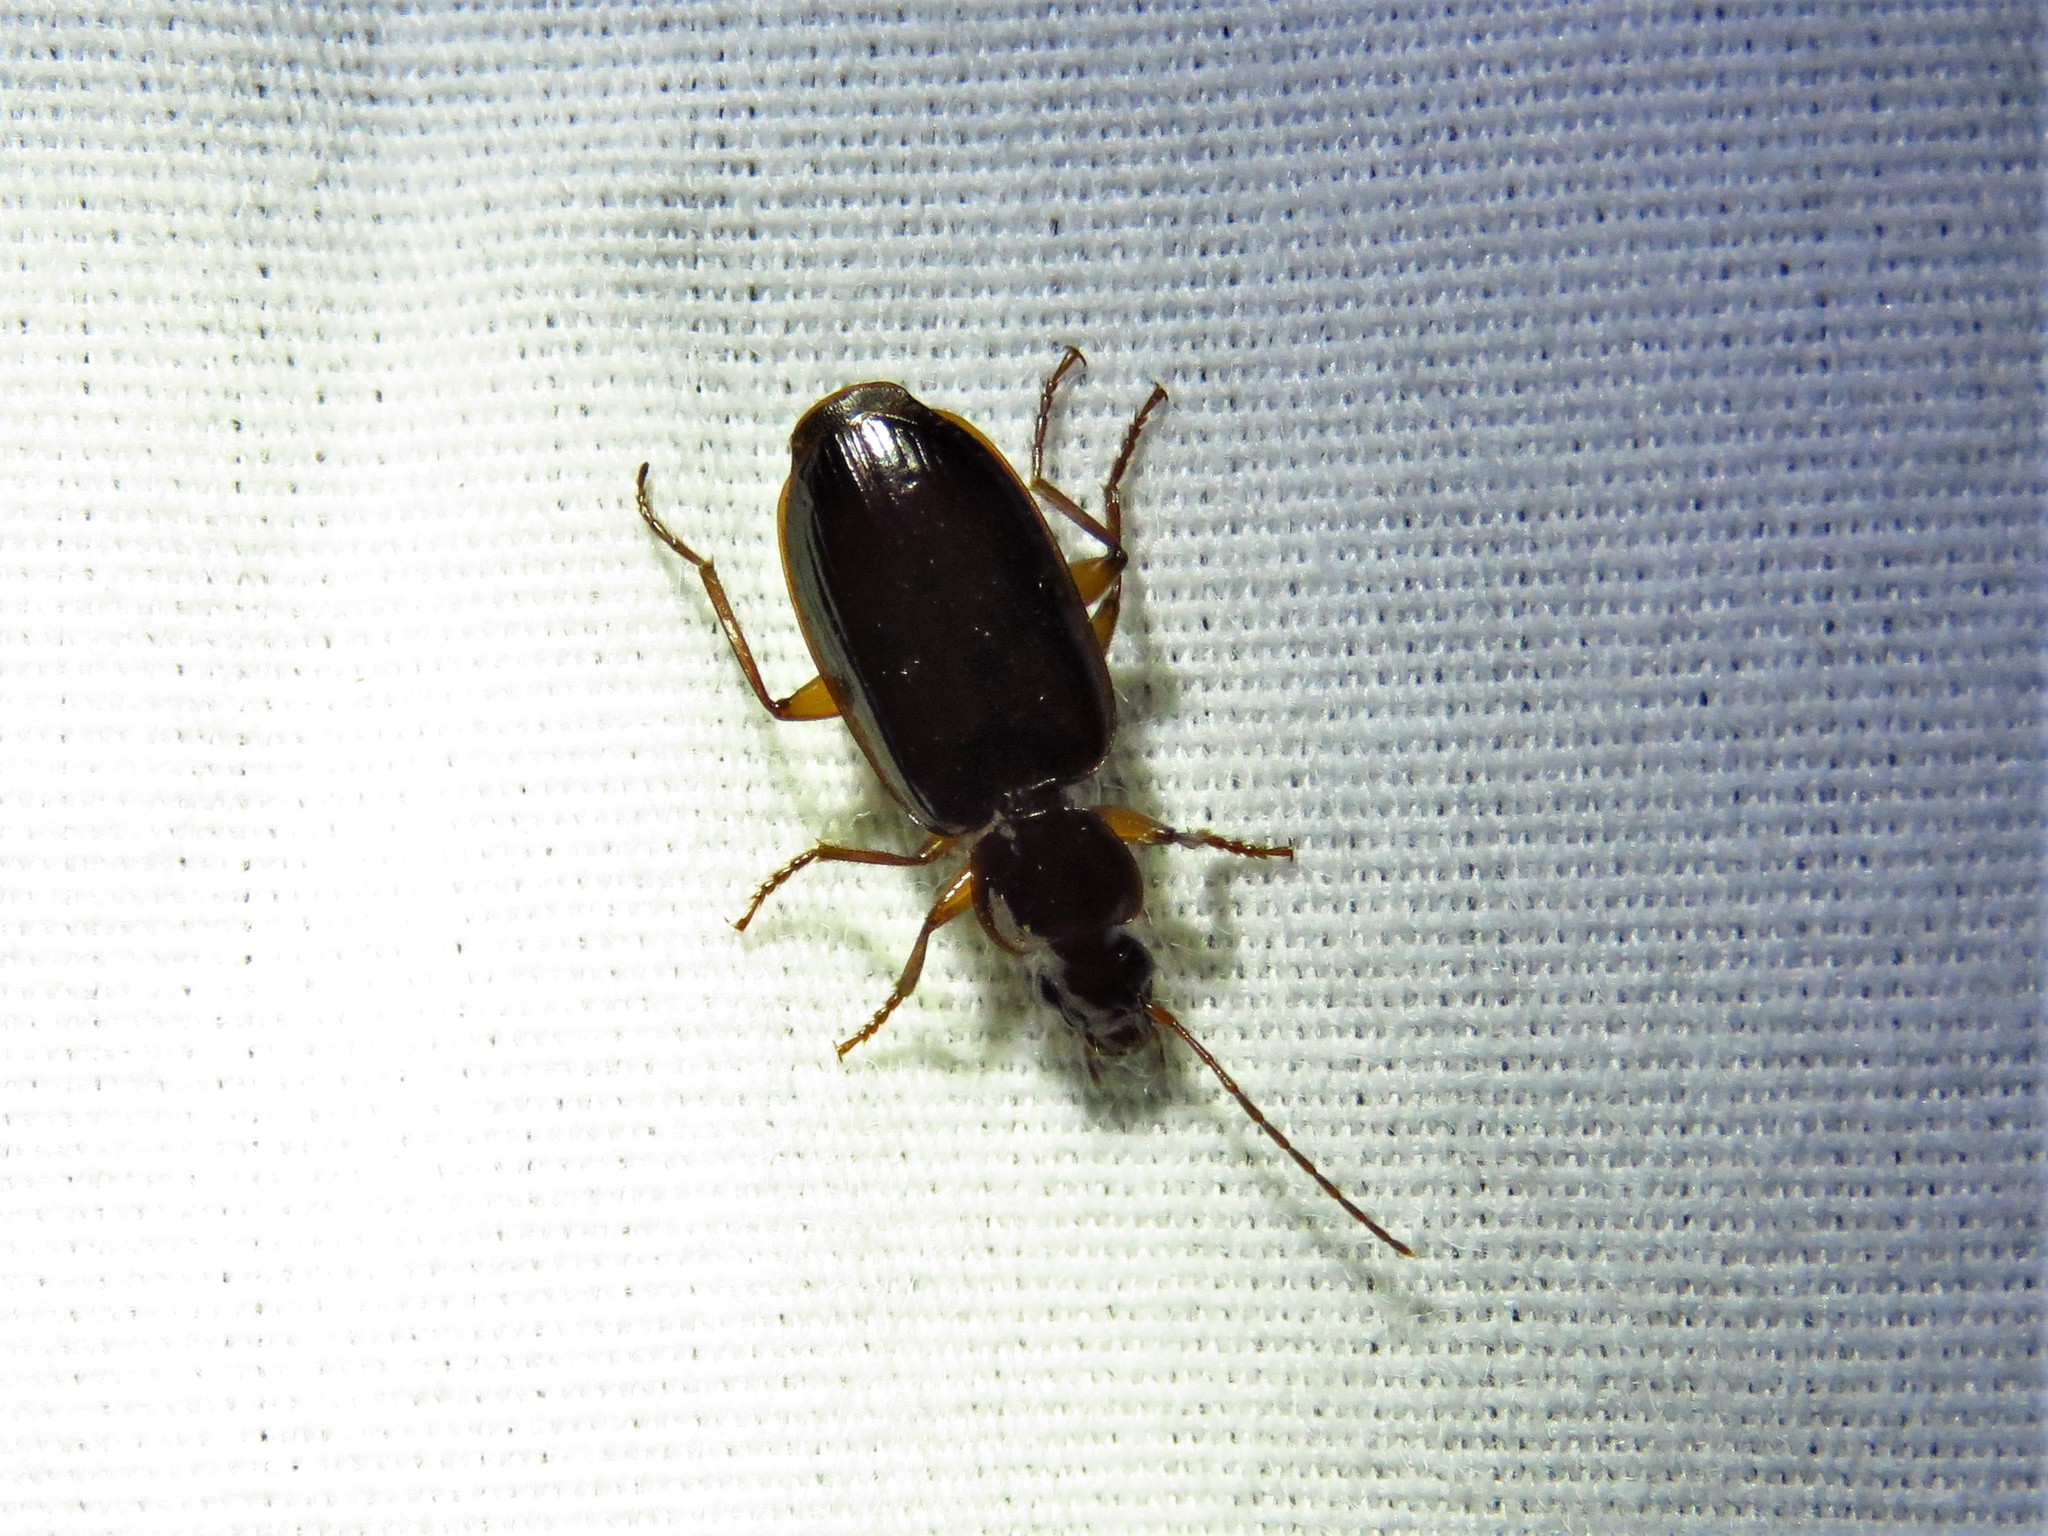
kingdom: Animalia
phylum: Arthropoda
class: Insecta
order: Coleoptera
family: Carabidae
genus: Dromius
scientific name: Dromius piceus
